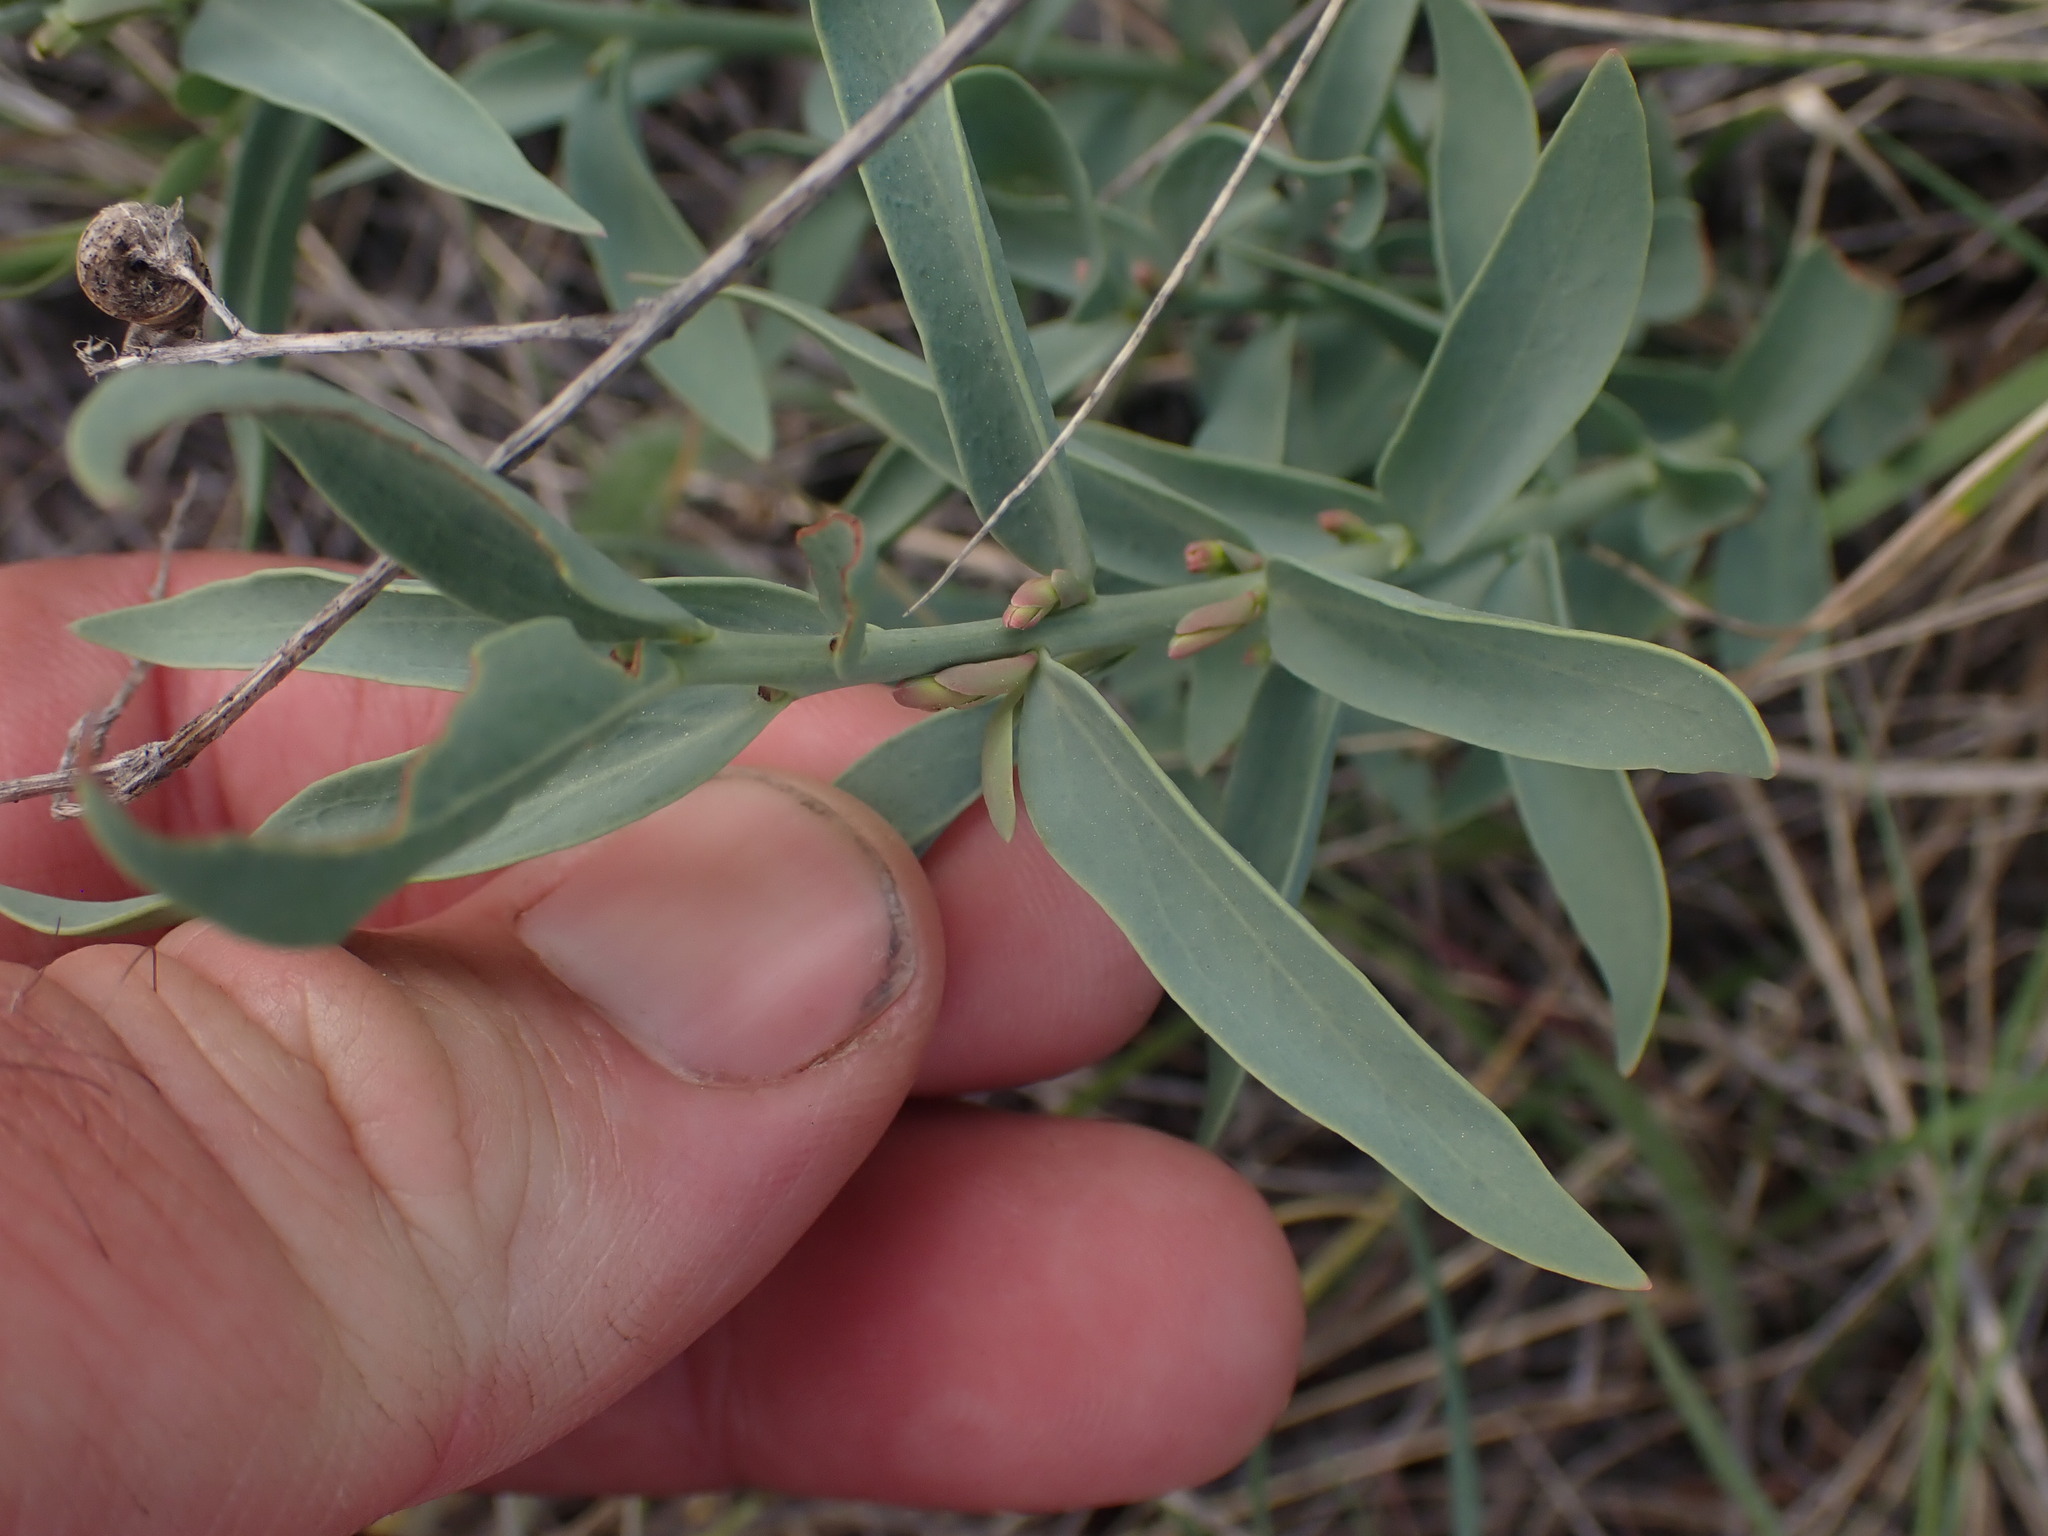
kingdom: Plantae
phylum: Tracheophyta
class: Magnoliopsida
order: Santalales
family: Comandraceae
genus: Comandra
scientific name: Comandra umbellata
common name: Bastard toadflax
